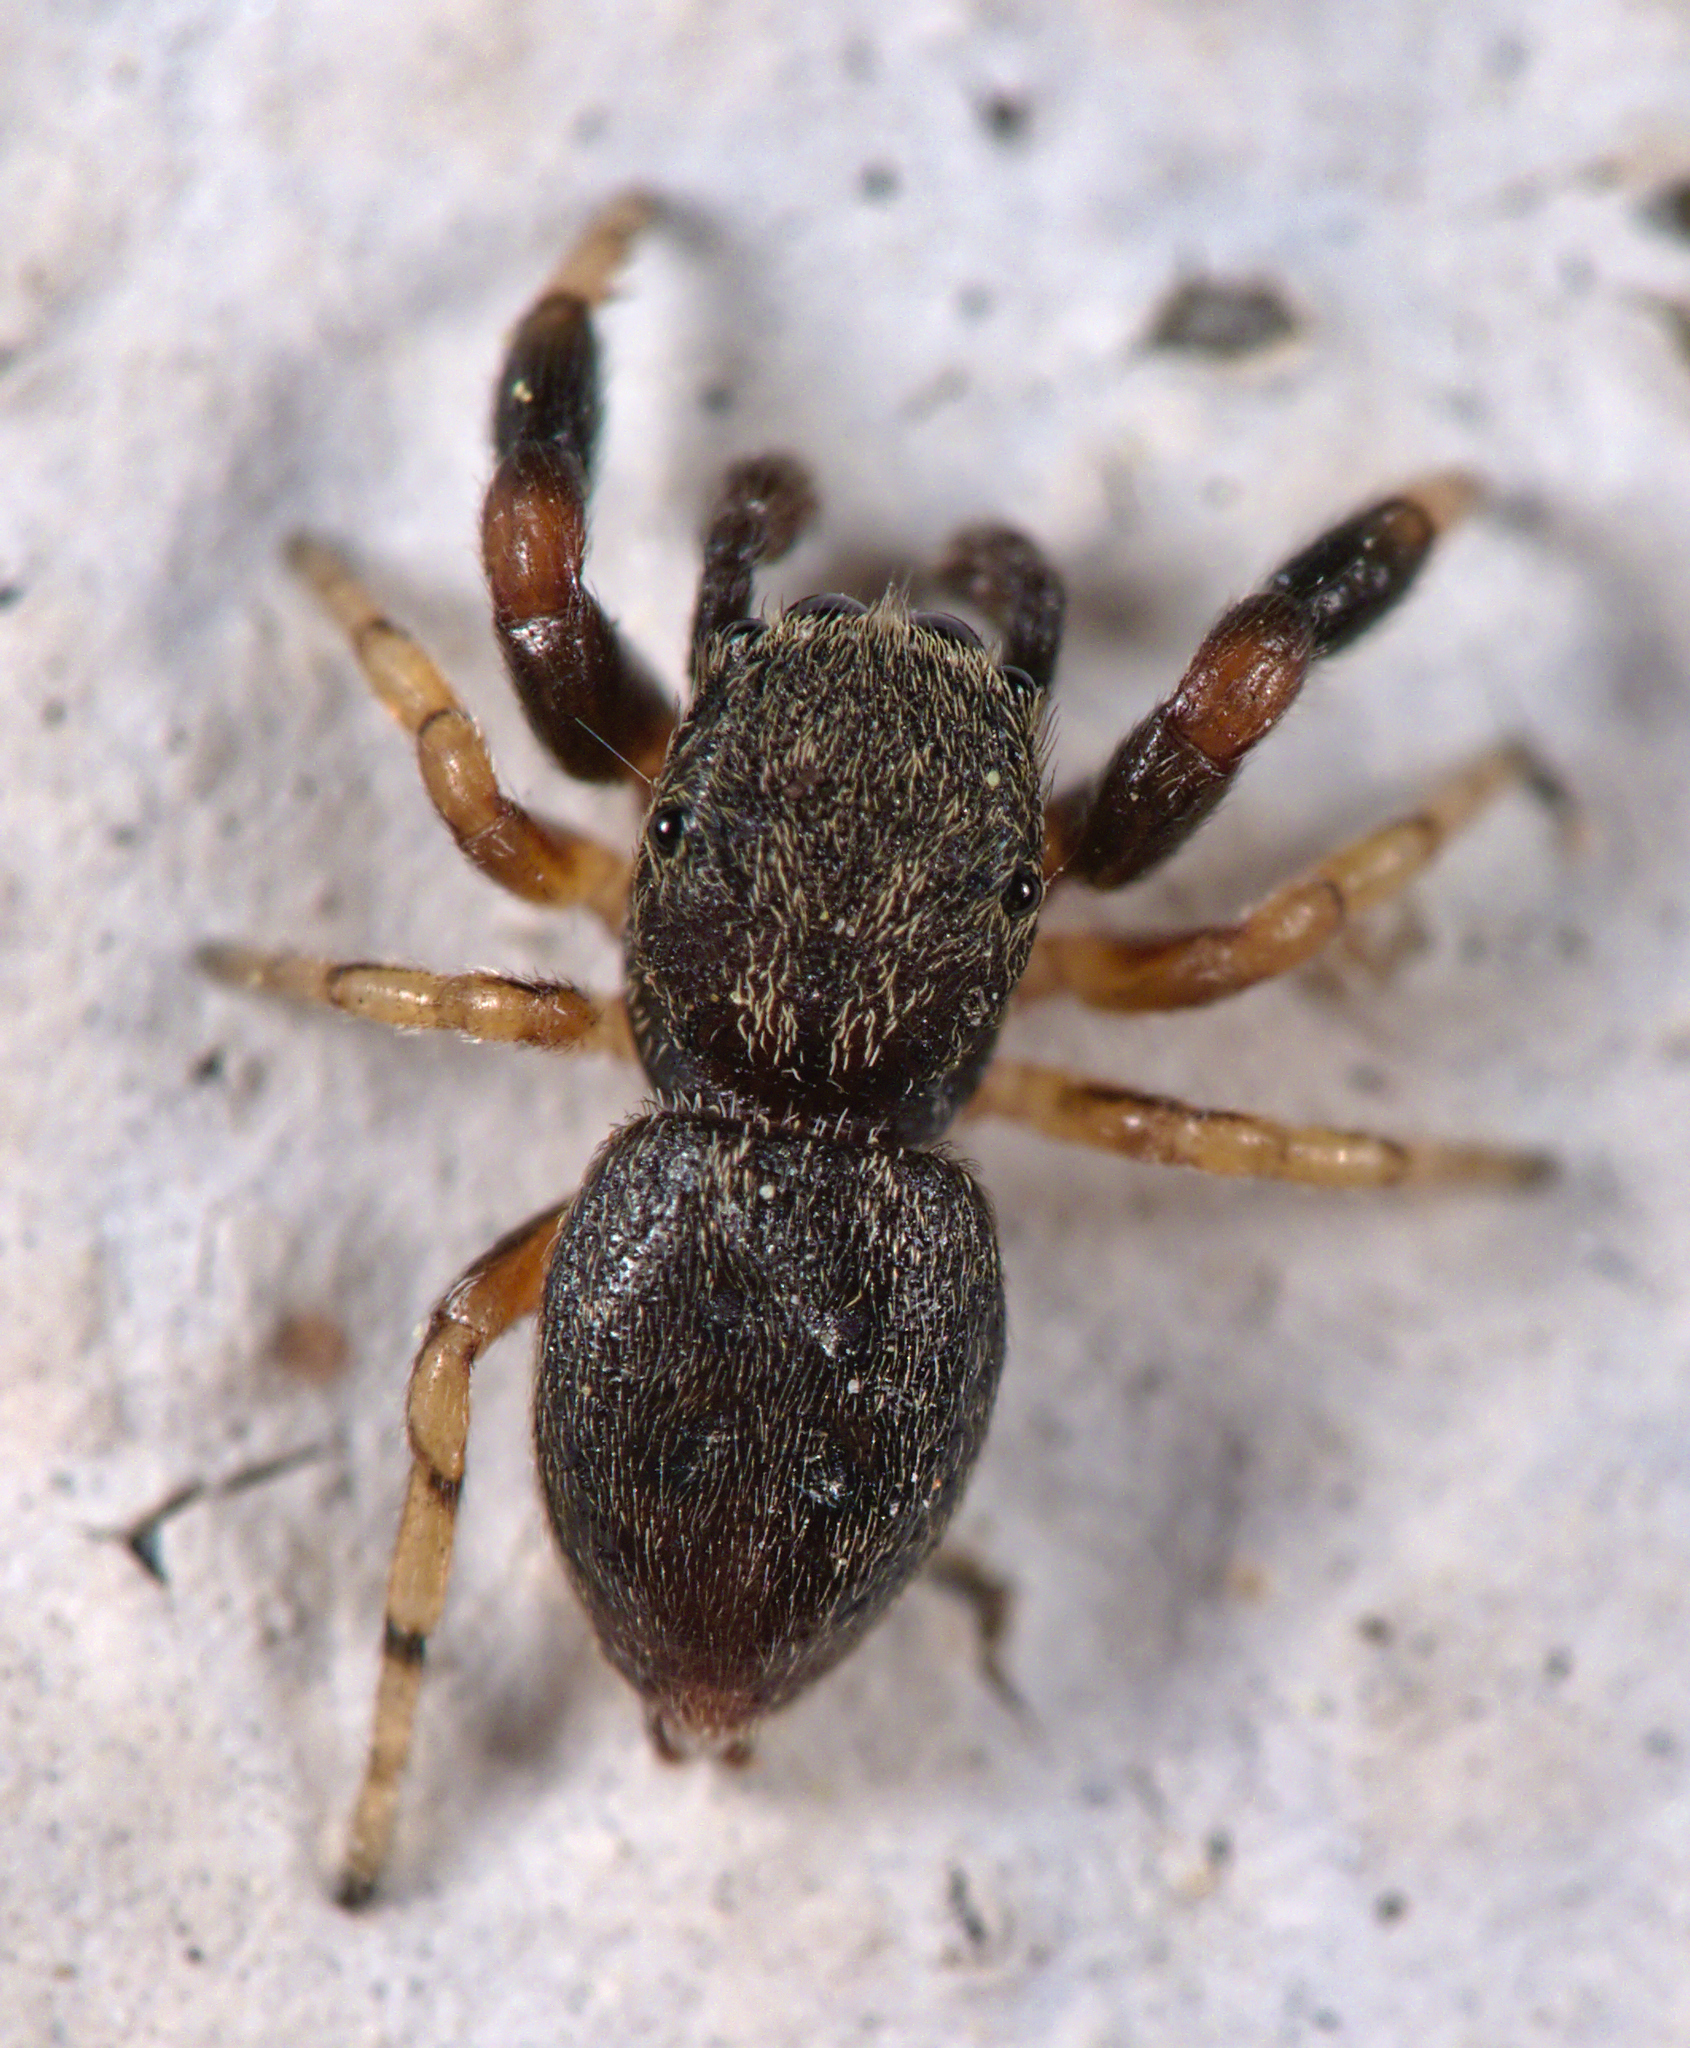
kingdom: Animalia
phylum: Arthropoda
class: Arachnida
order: Araneae
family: Salticidae
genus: Ballus
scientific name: Ballus chalybeius
